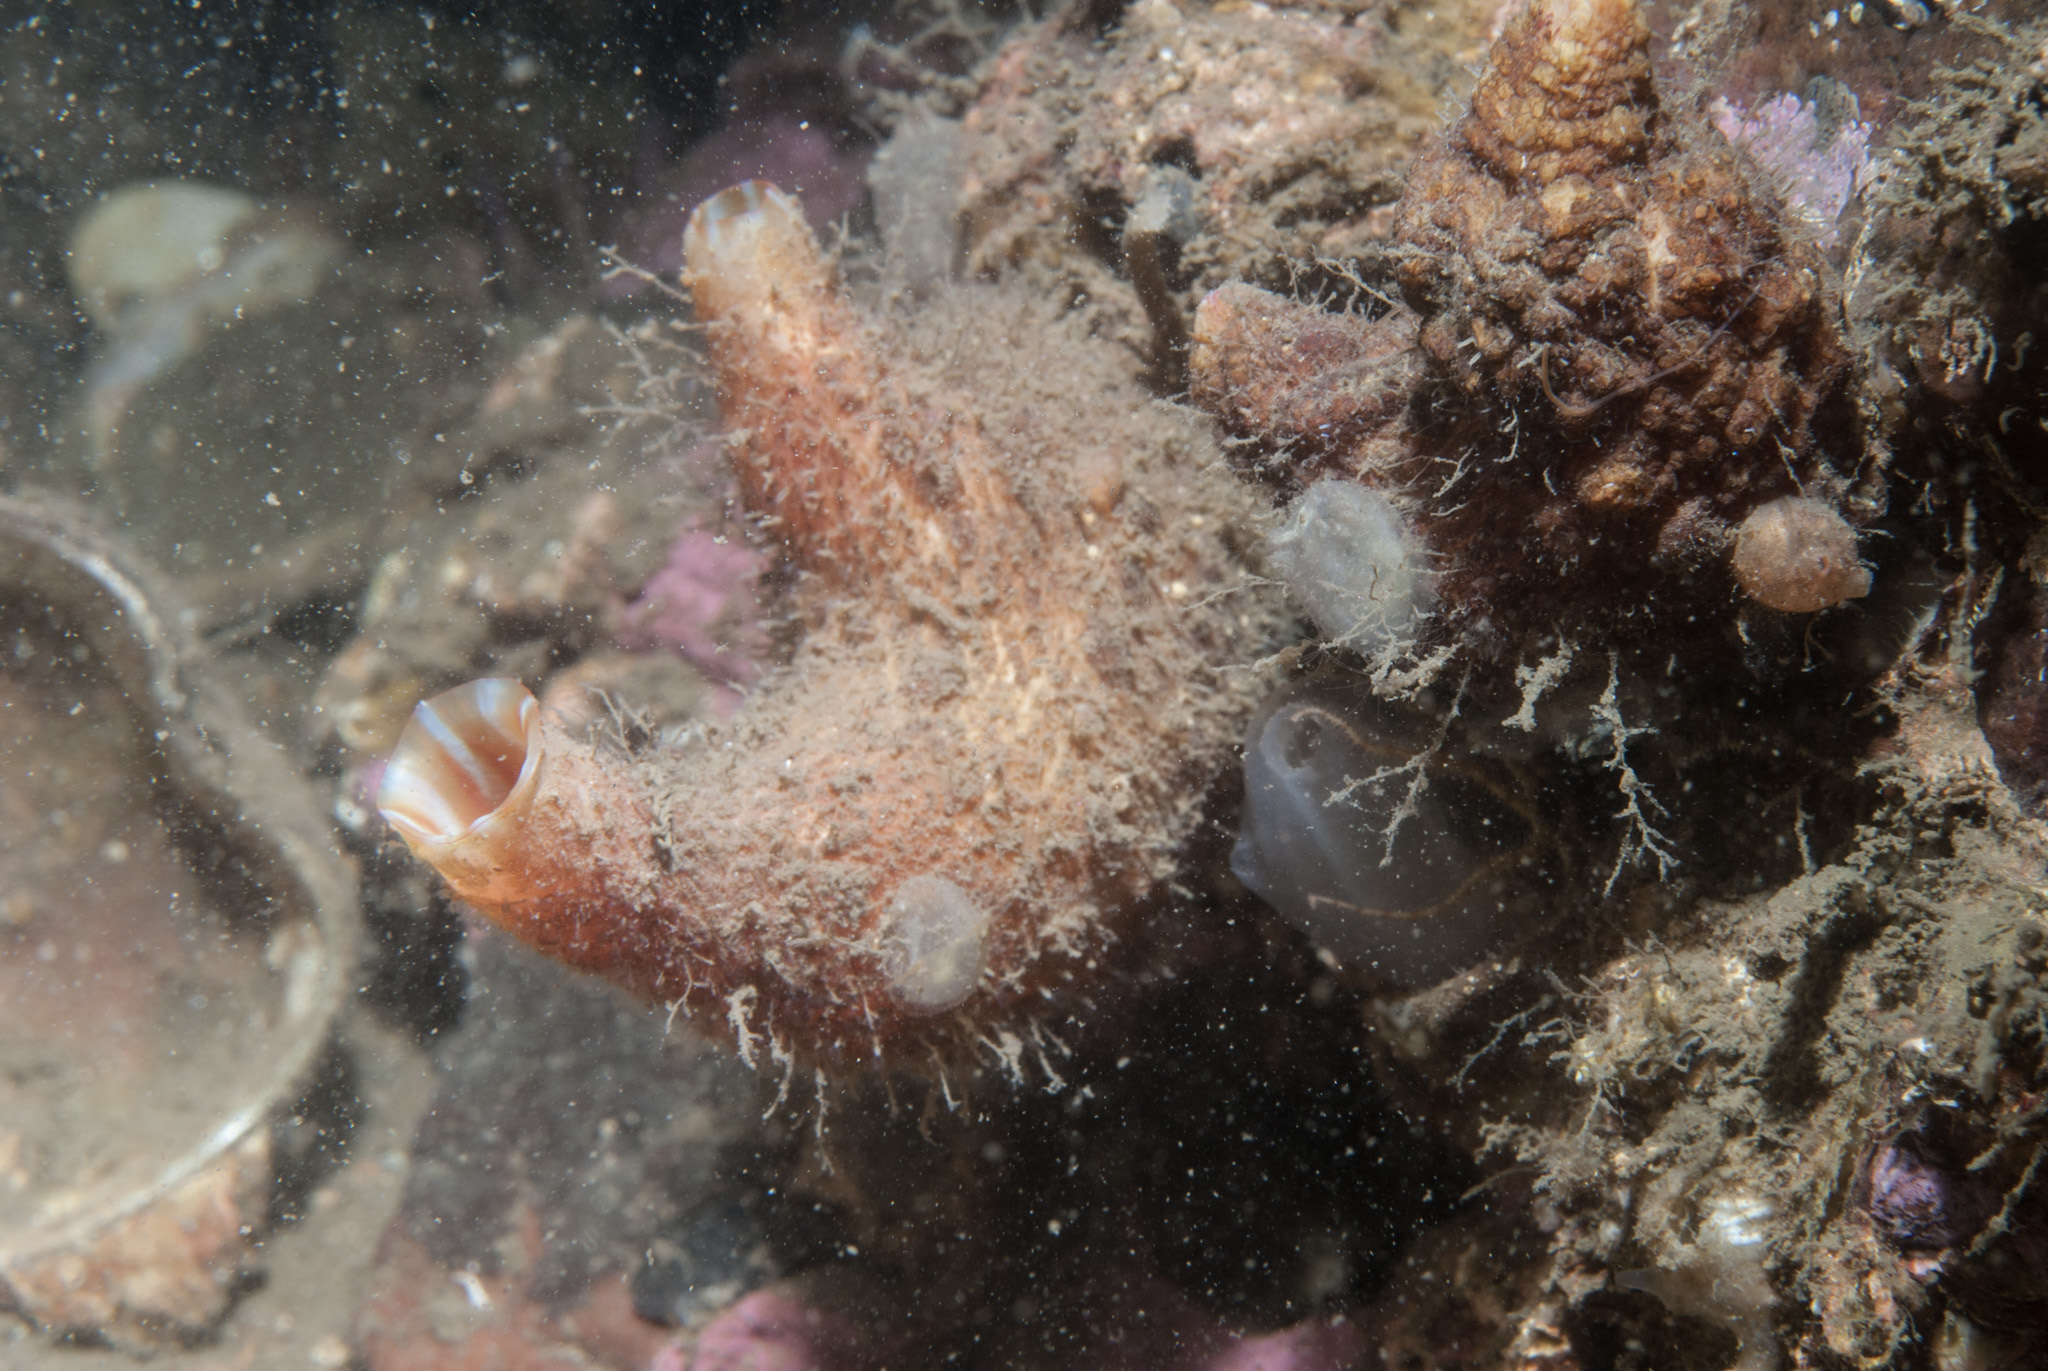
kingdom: Animalia
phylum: Chordata
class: Ascidiacea
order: Stolidobranchia
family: Pyuridae
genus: Pyura
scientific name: Pyura microcosmus
